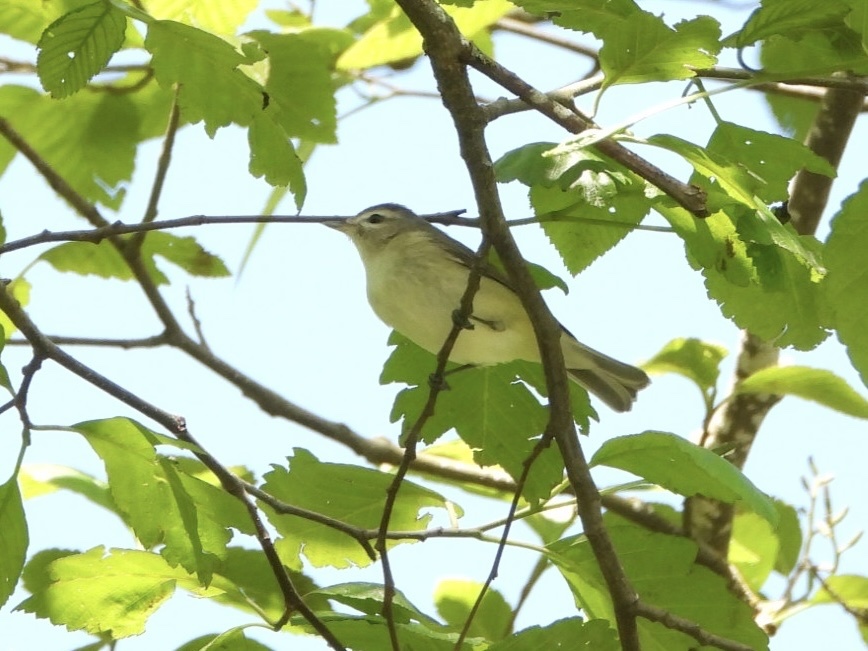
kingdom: Animalia
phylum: Chordata
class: Aves
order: Passeriformes
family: Vireonidae
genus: Vireo
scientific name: Vireo gilvus
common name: Warbling vireo
